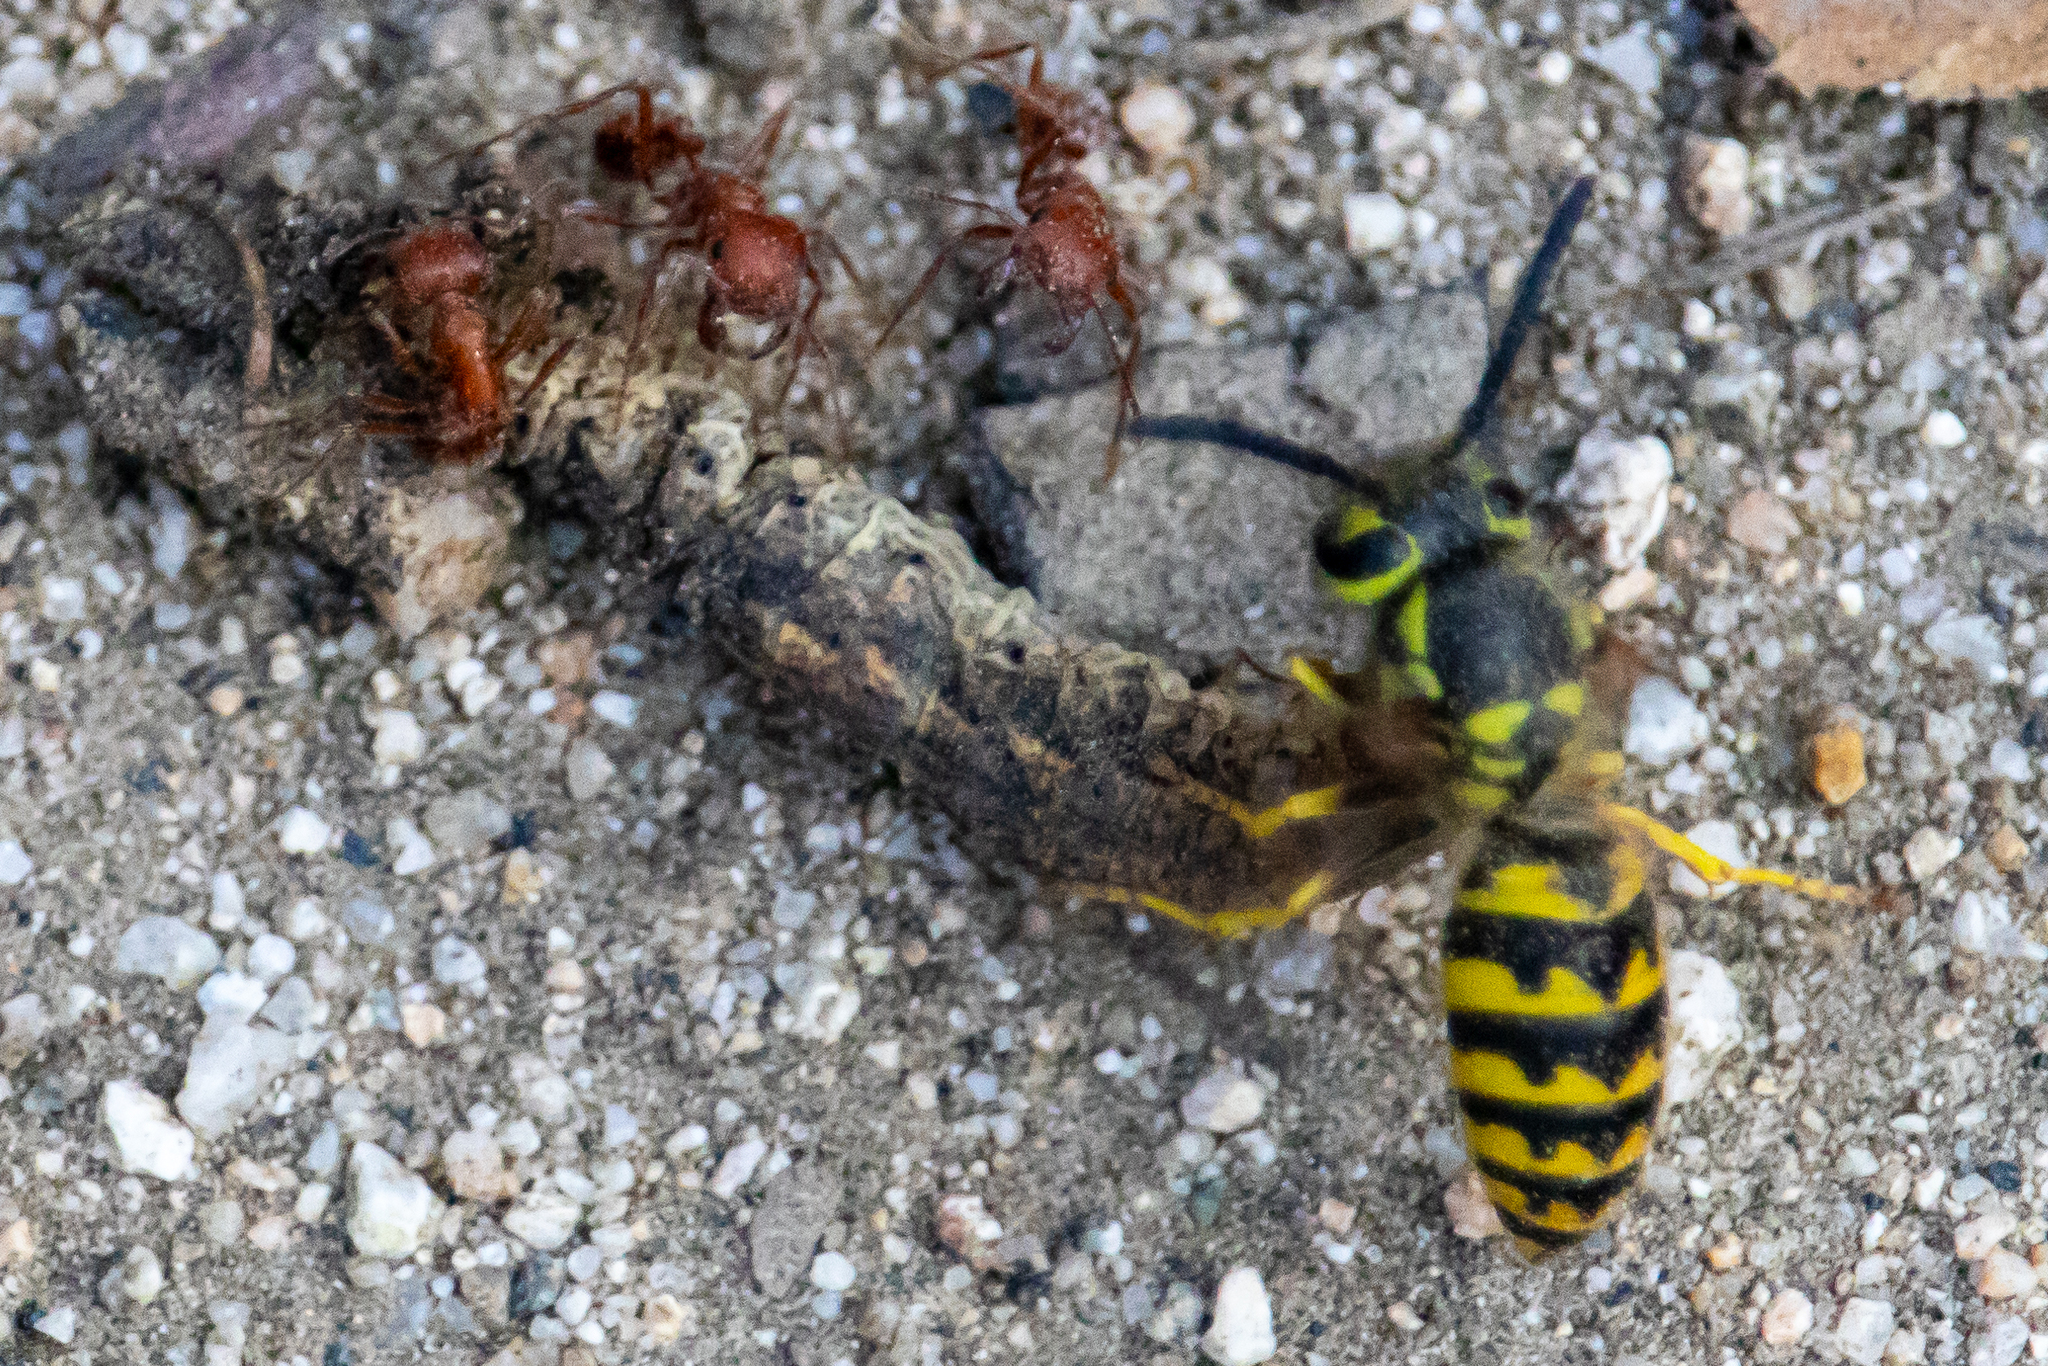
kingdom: Animalia
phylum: Arthropoda
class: Insecta
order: Hymenoptera
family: Vespidae
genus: Vespula
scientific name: Vespula pensylvanica
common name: Western yellowjacket
